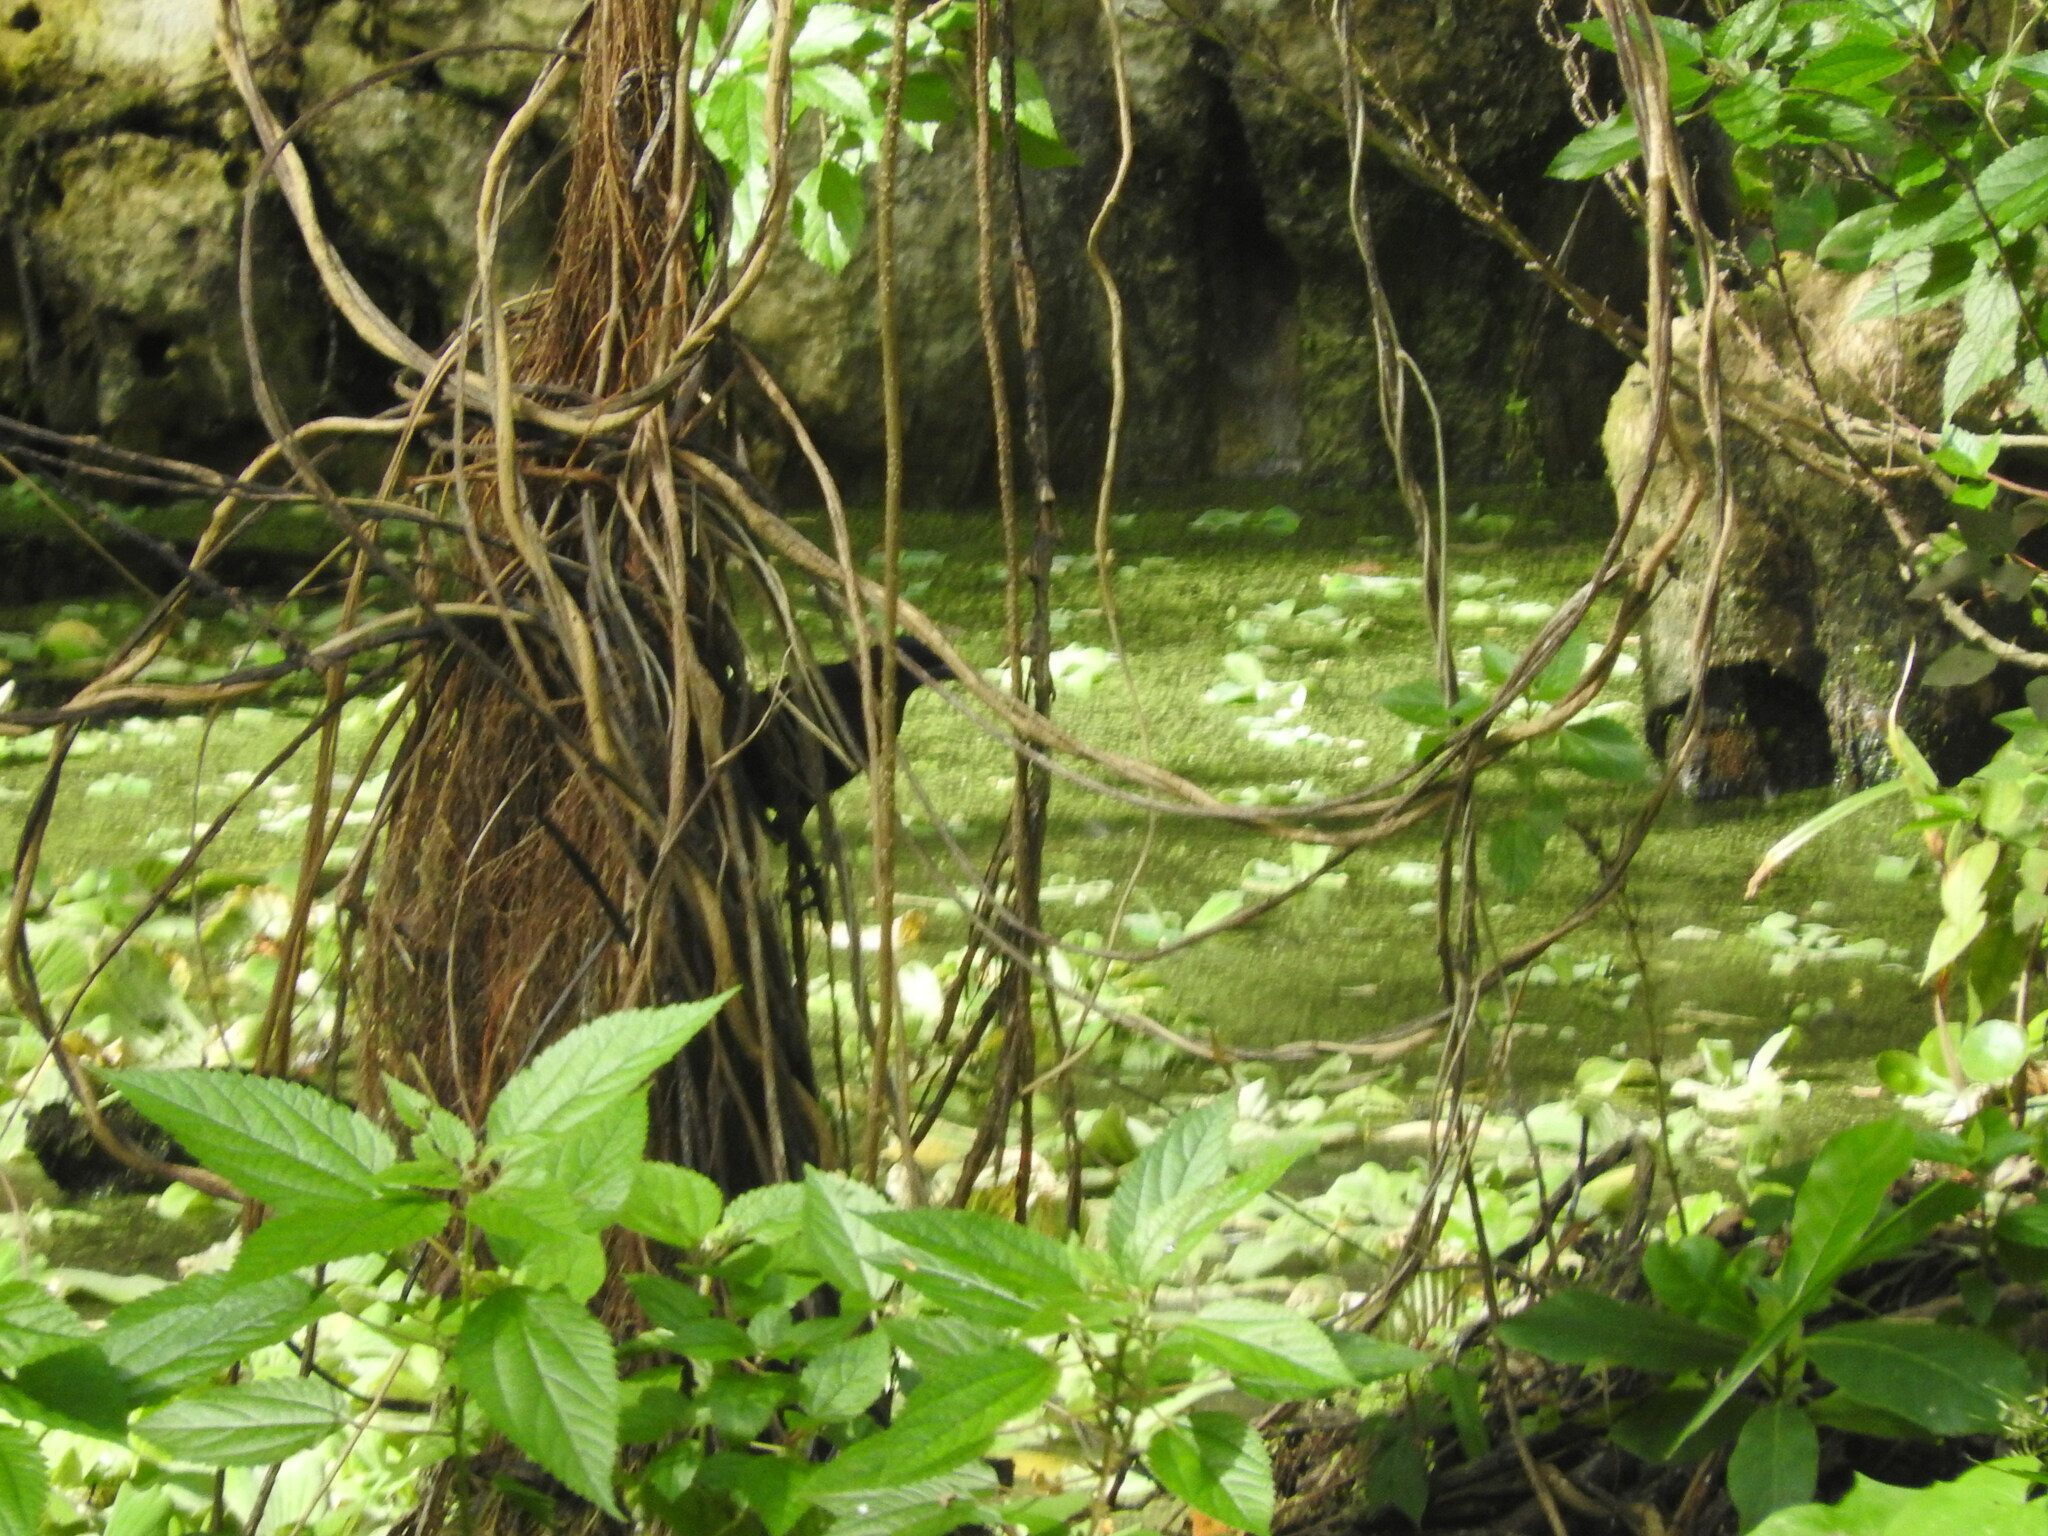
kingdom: Animalia
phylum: Chordata
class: Aves
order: Passeriformes
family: Icteridae
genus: Quiscalus
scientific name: Quiscalus mexicanus
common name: Great-tailed grackle
